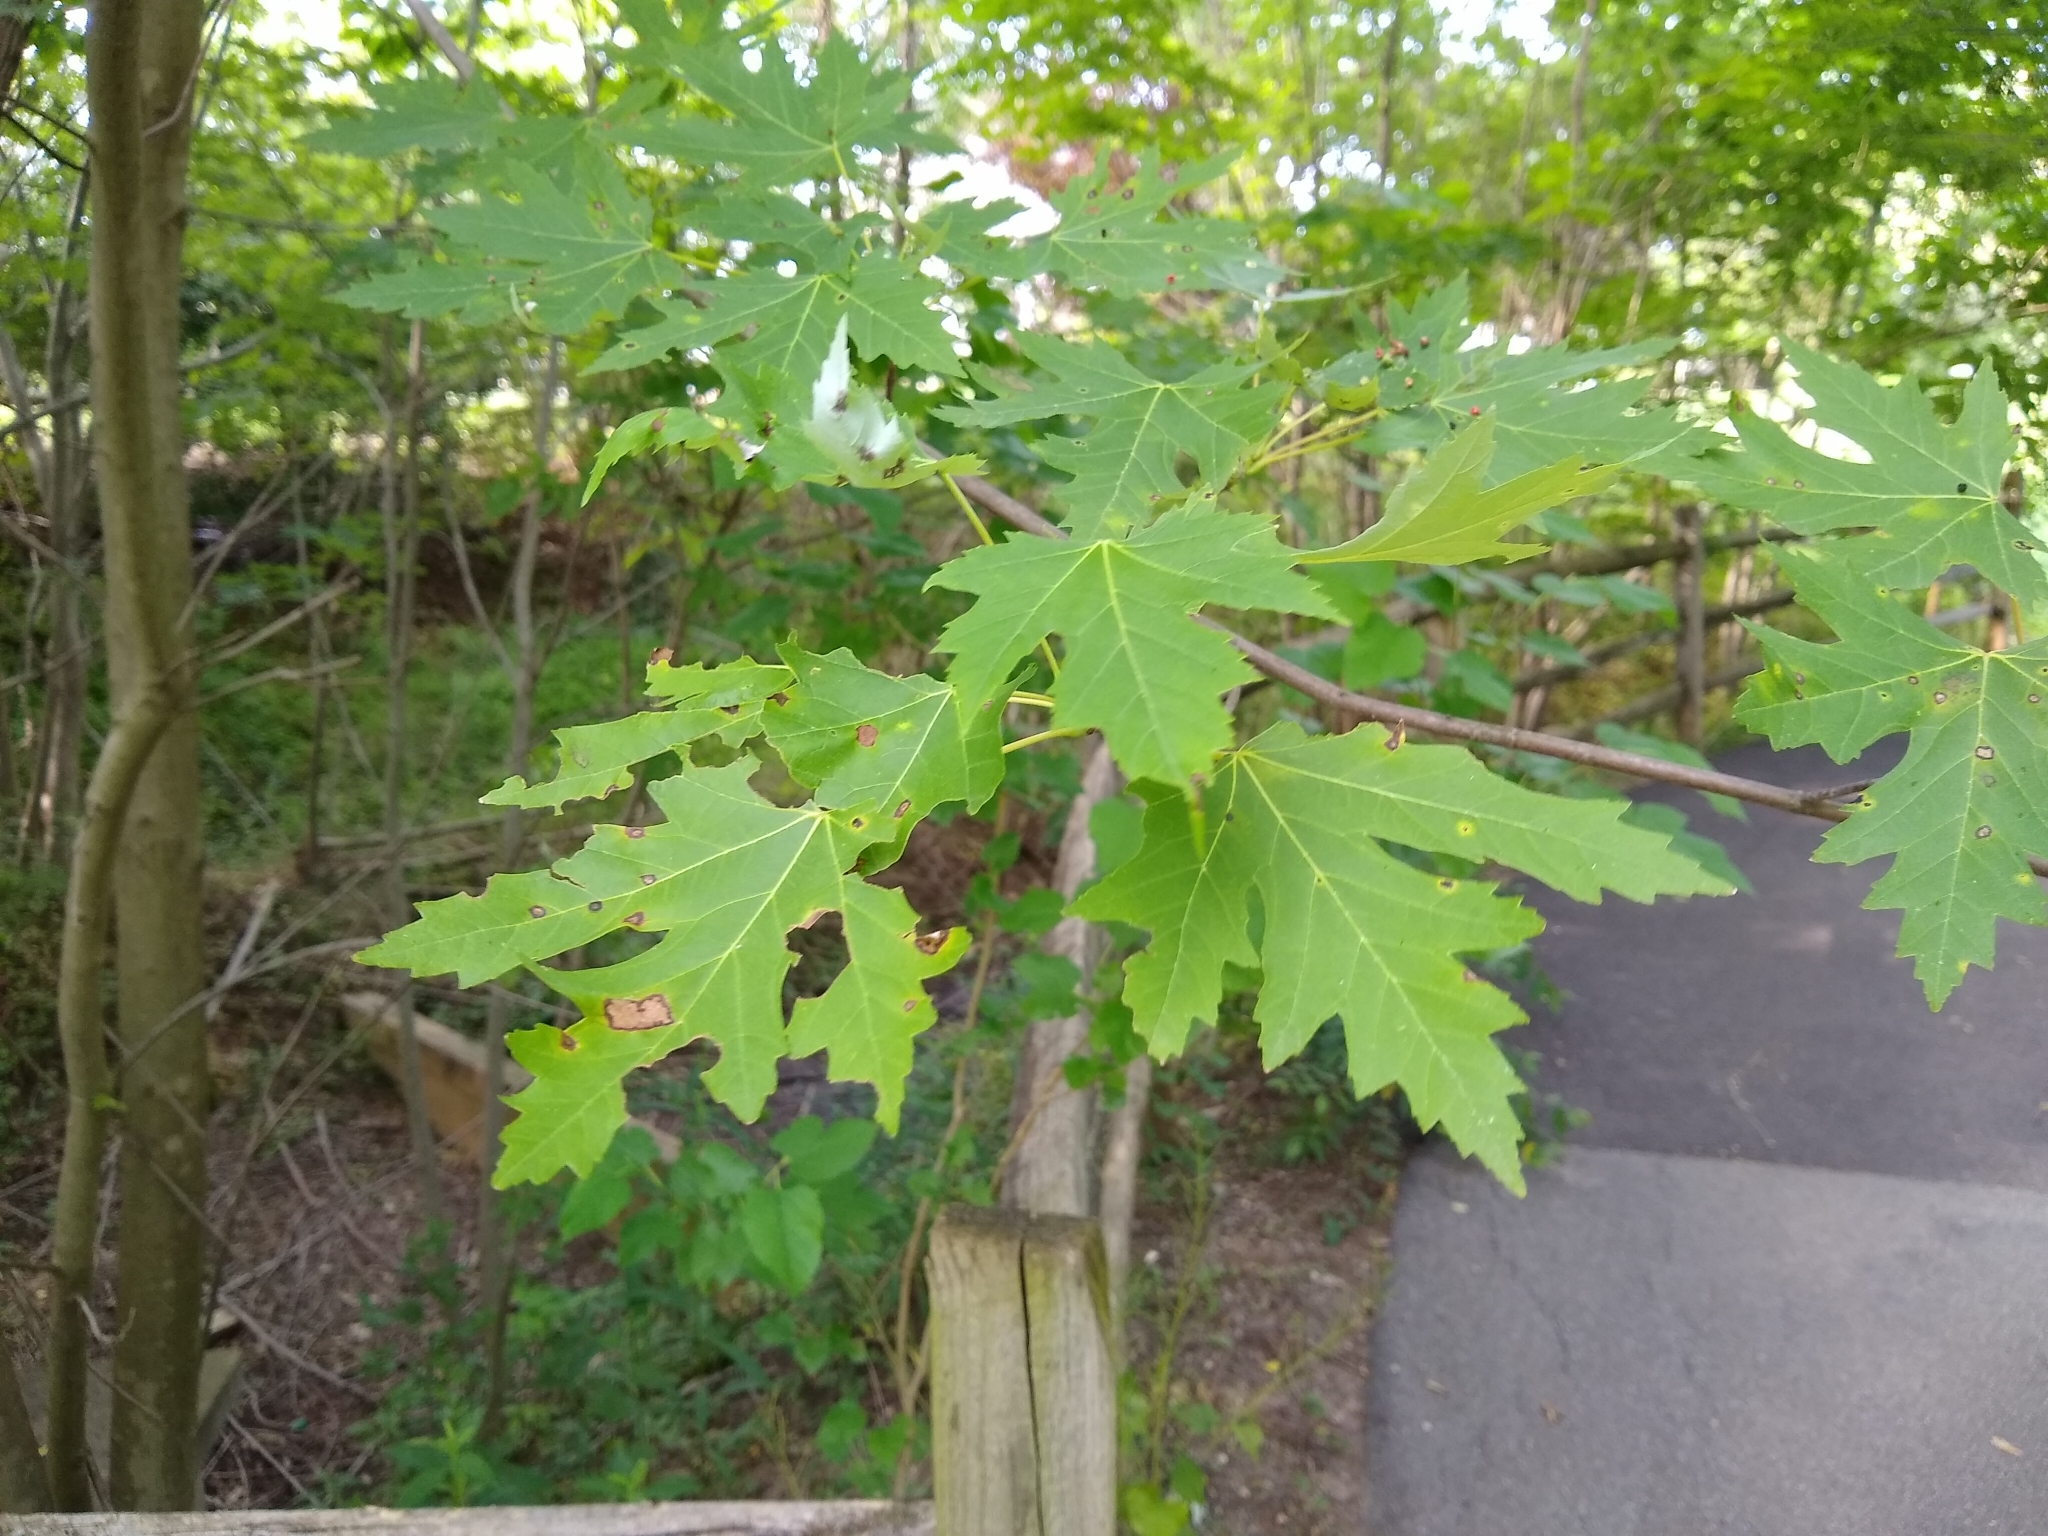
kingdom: Plantae
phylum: Tracheophyta
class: Magnoliopsida
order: Sapindales
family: Sapindaceae
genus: Acer
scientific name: Acer saccharinum
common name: Silver maple
